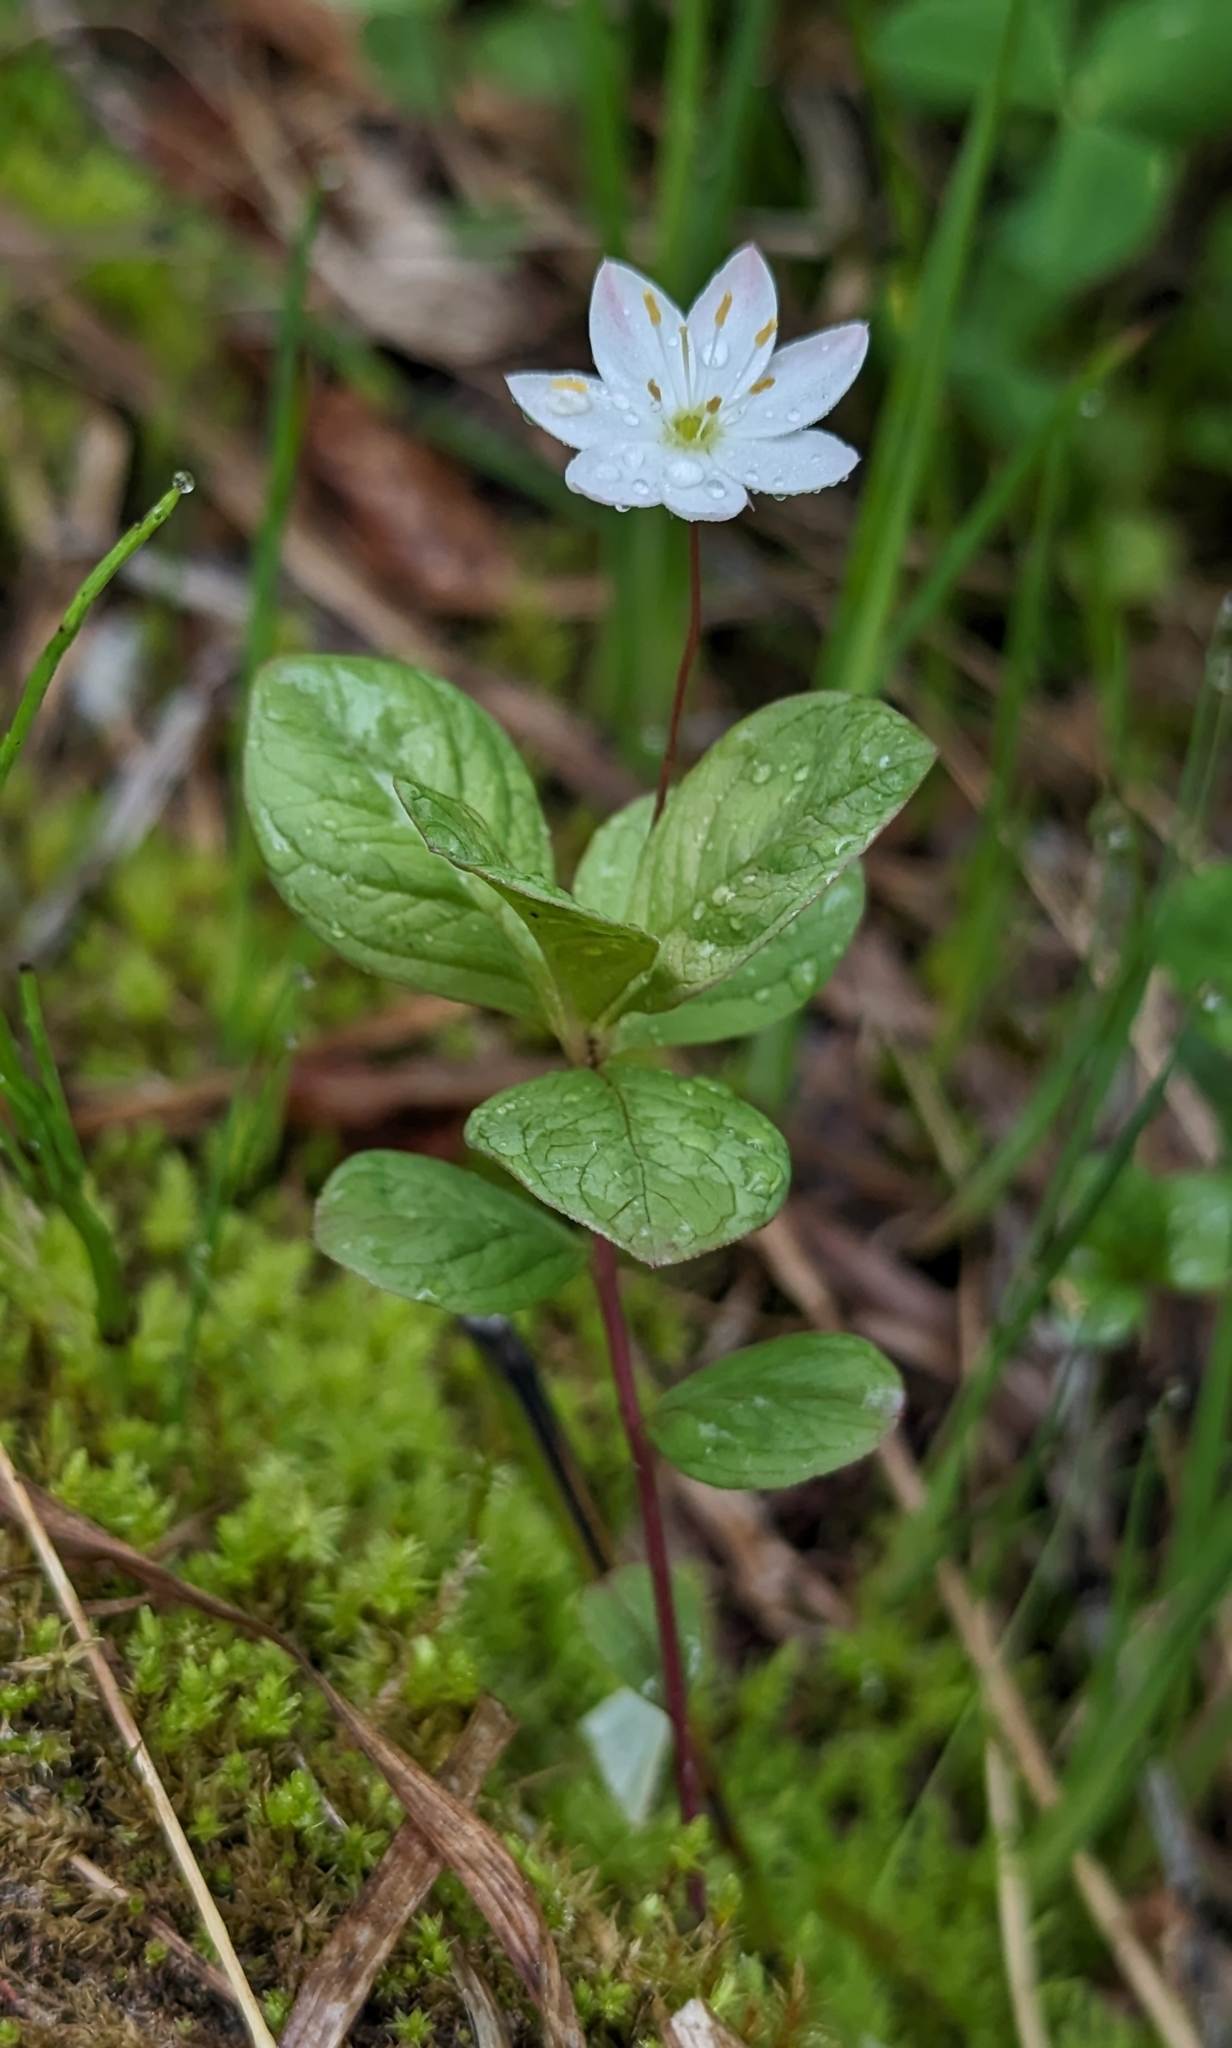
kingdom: Plantae
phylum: Tracheophyta
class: Magnoliopsida
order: Ericales
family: Primulaceae
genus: Lysimachia
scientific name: Lysimachia europaea
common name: Arctic starflower
